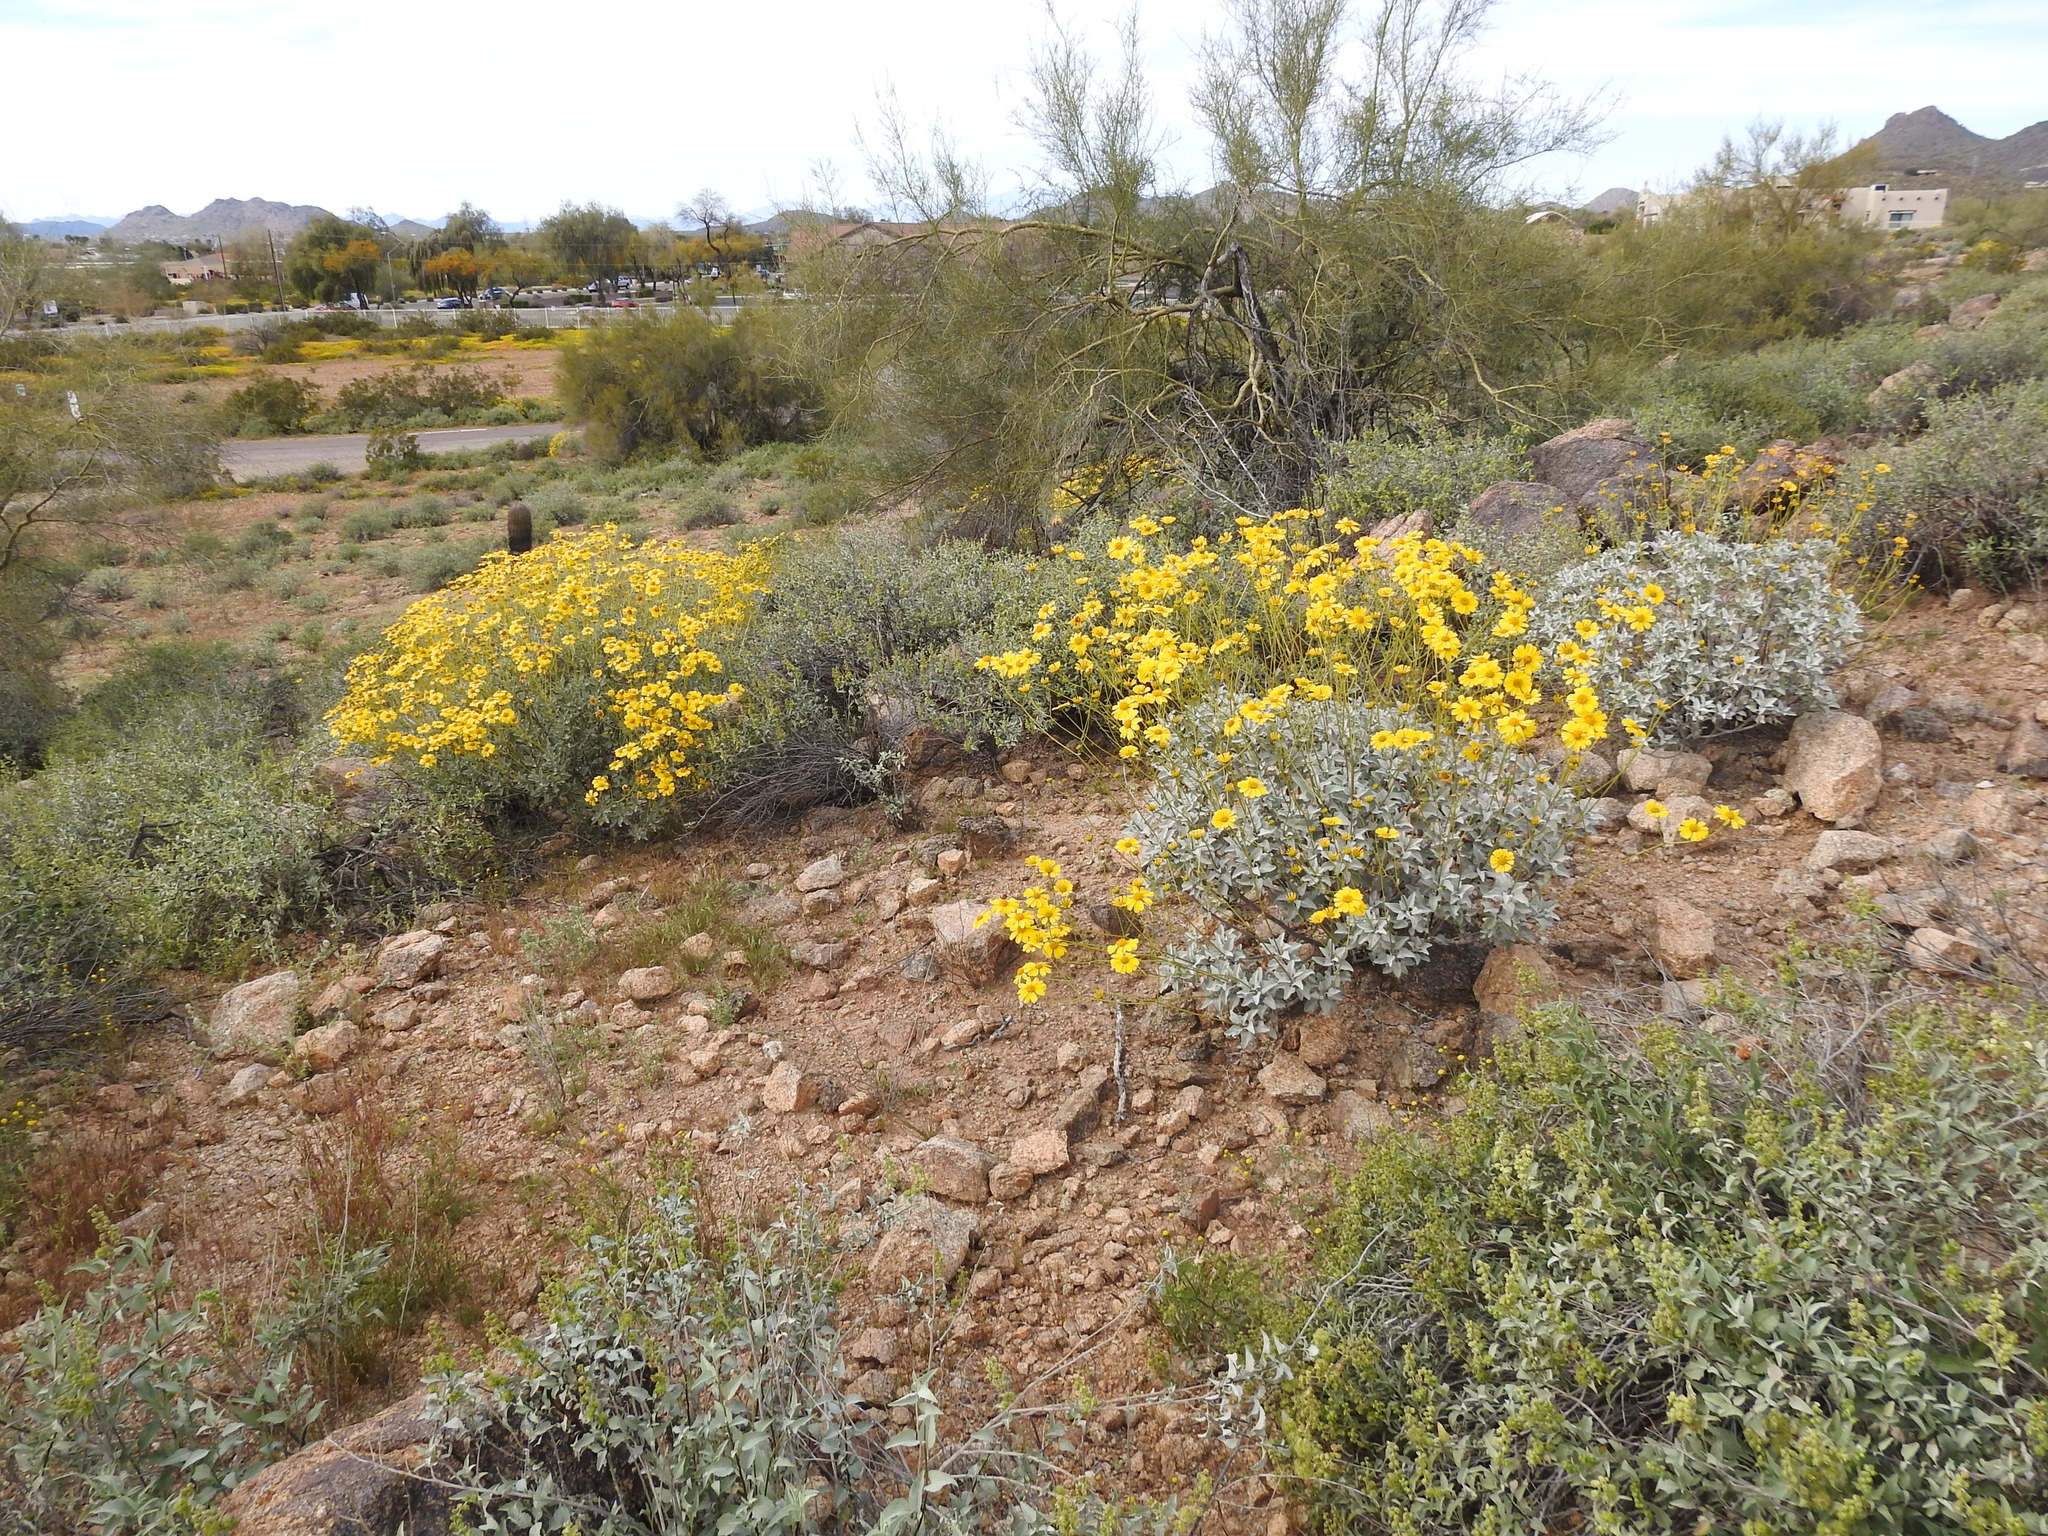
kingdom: Plantae
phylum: Tracheophyta
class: Magnoliopsida
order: Asterales
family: Asteraceae
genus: Encelia
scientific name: Encelia farinosa
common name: Brittlebush
